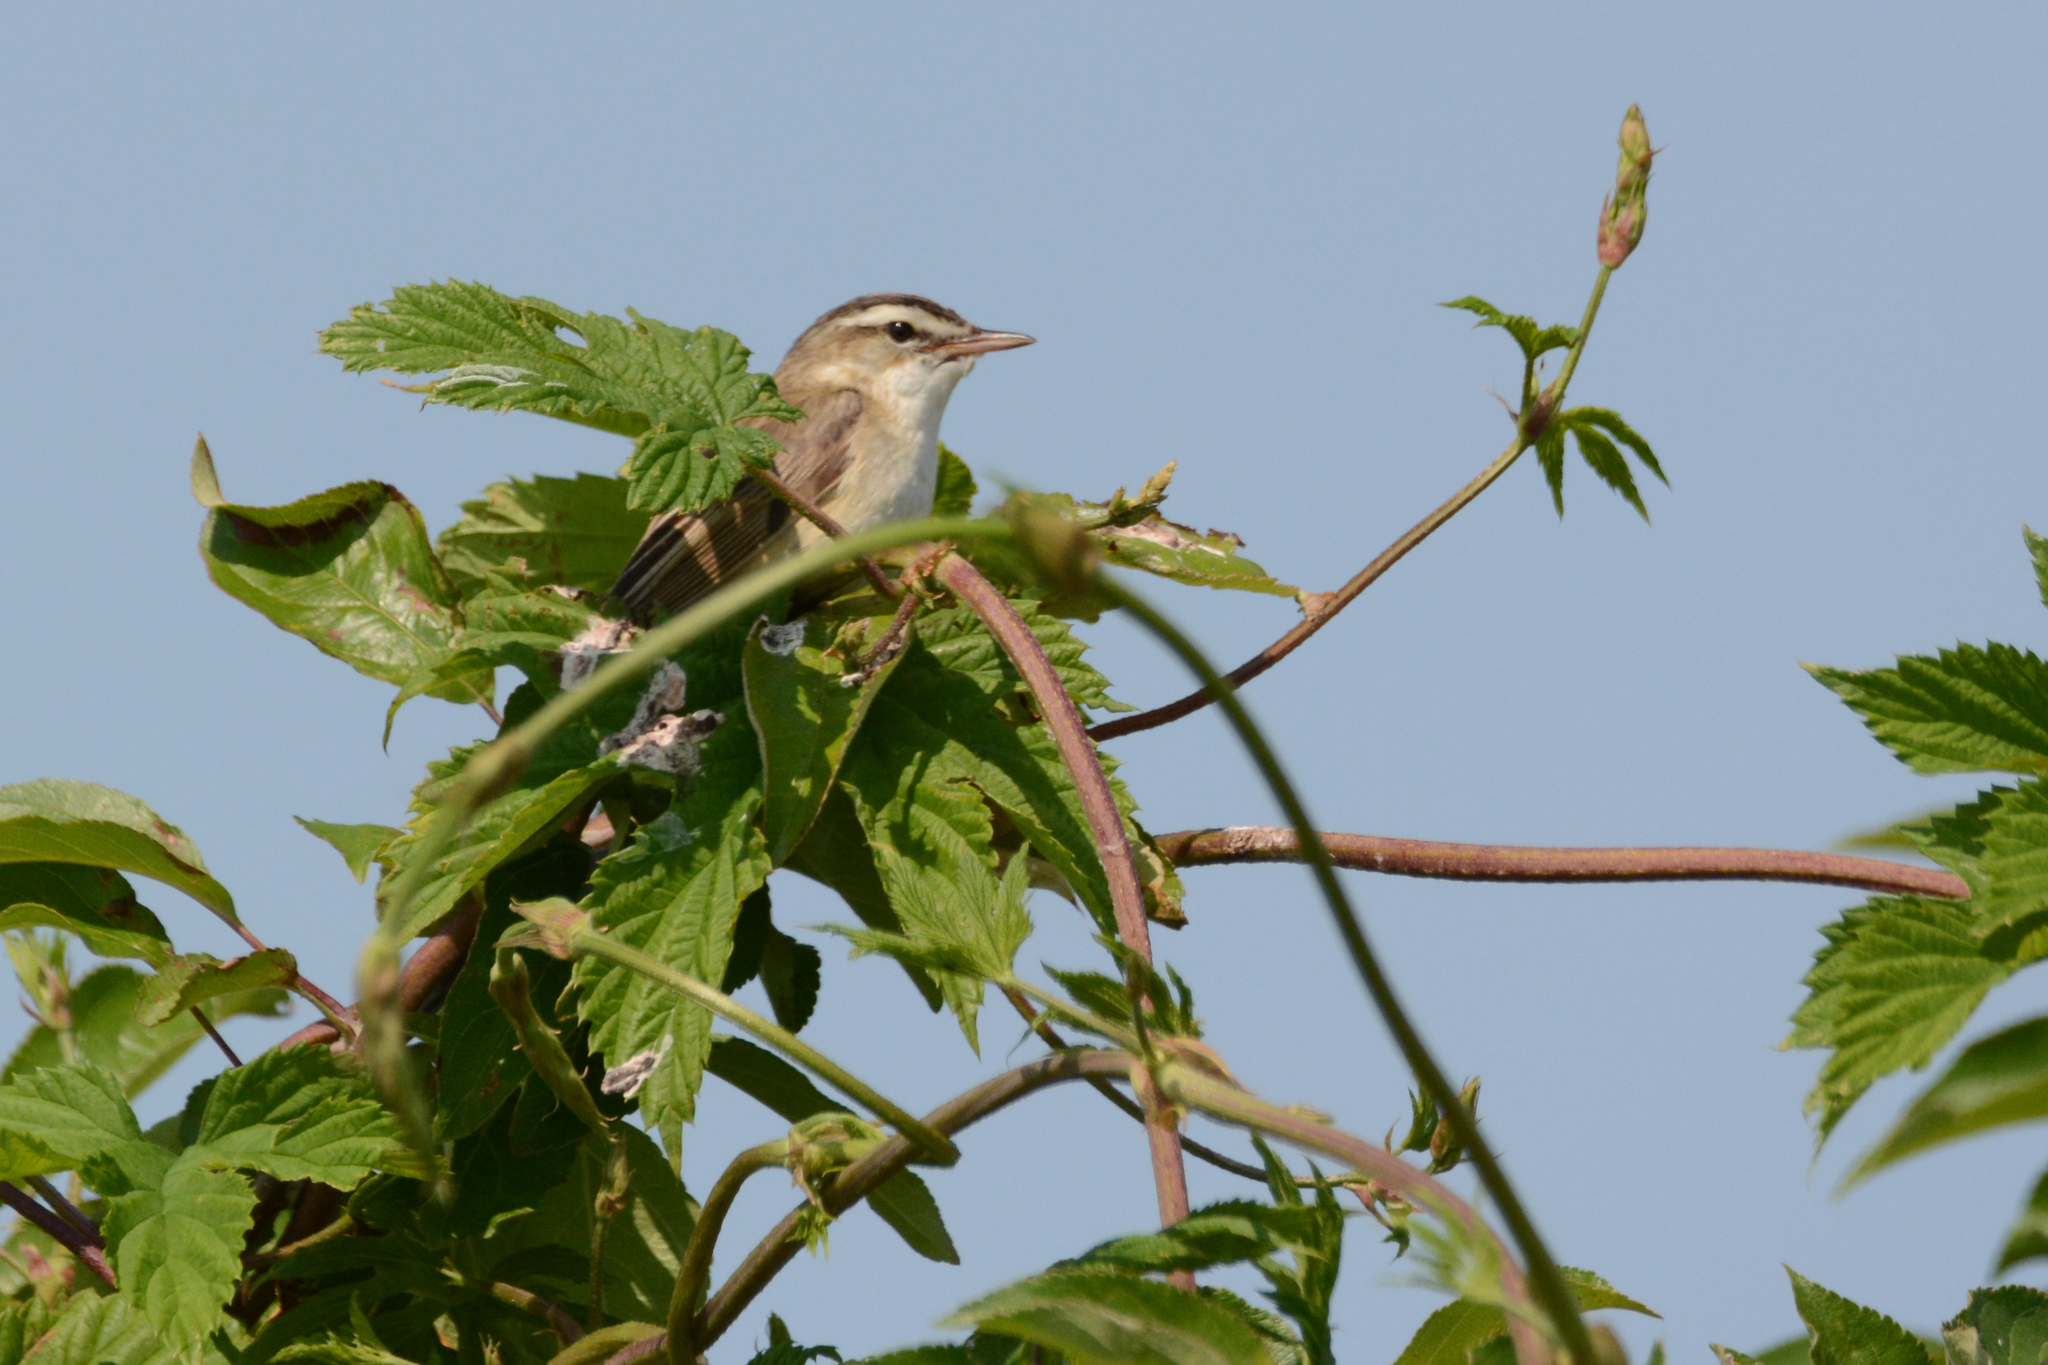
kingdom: Animalia
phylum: Chordata
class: Aves
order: Passeriformes
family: Acrocephalidae
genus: Acrocephalus
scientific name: Acrocephalus schoenobaenus
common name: Sedge warbler
